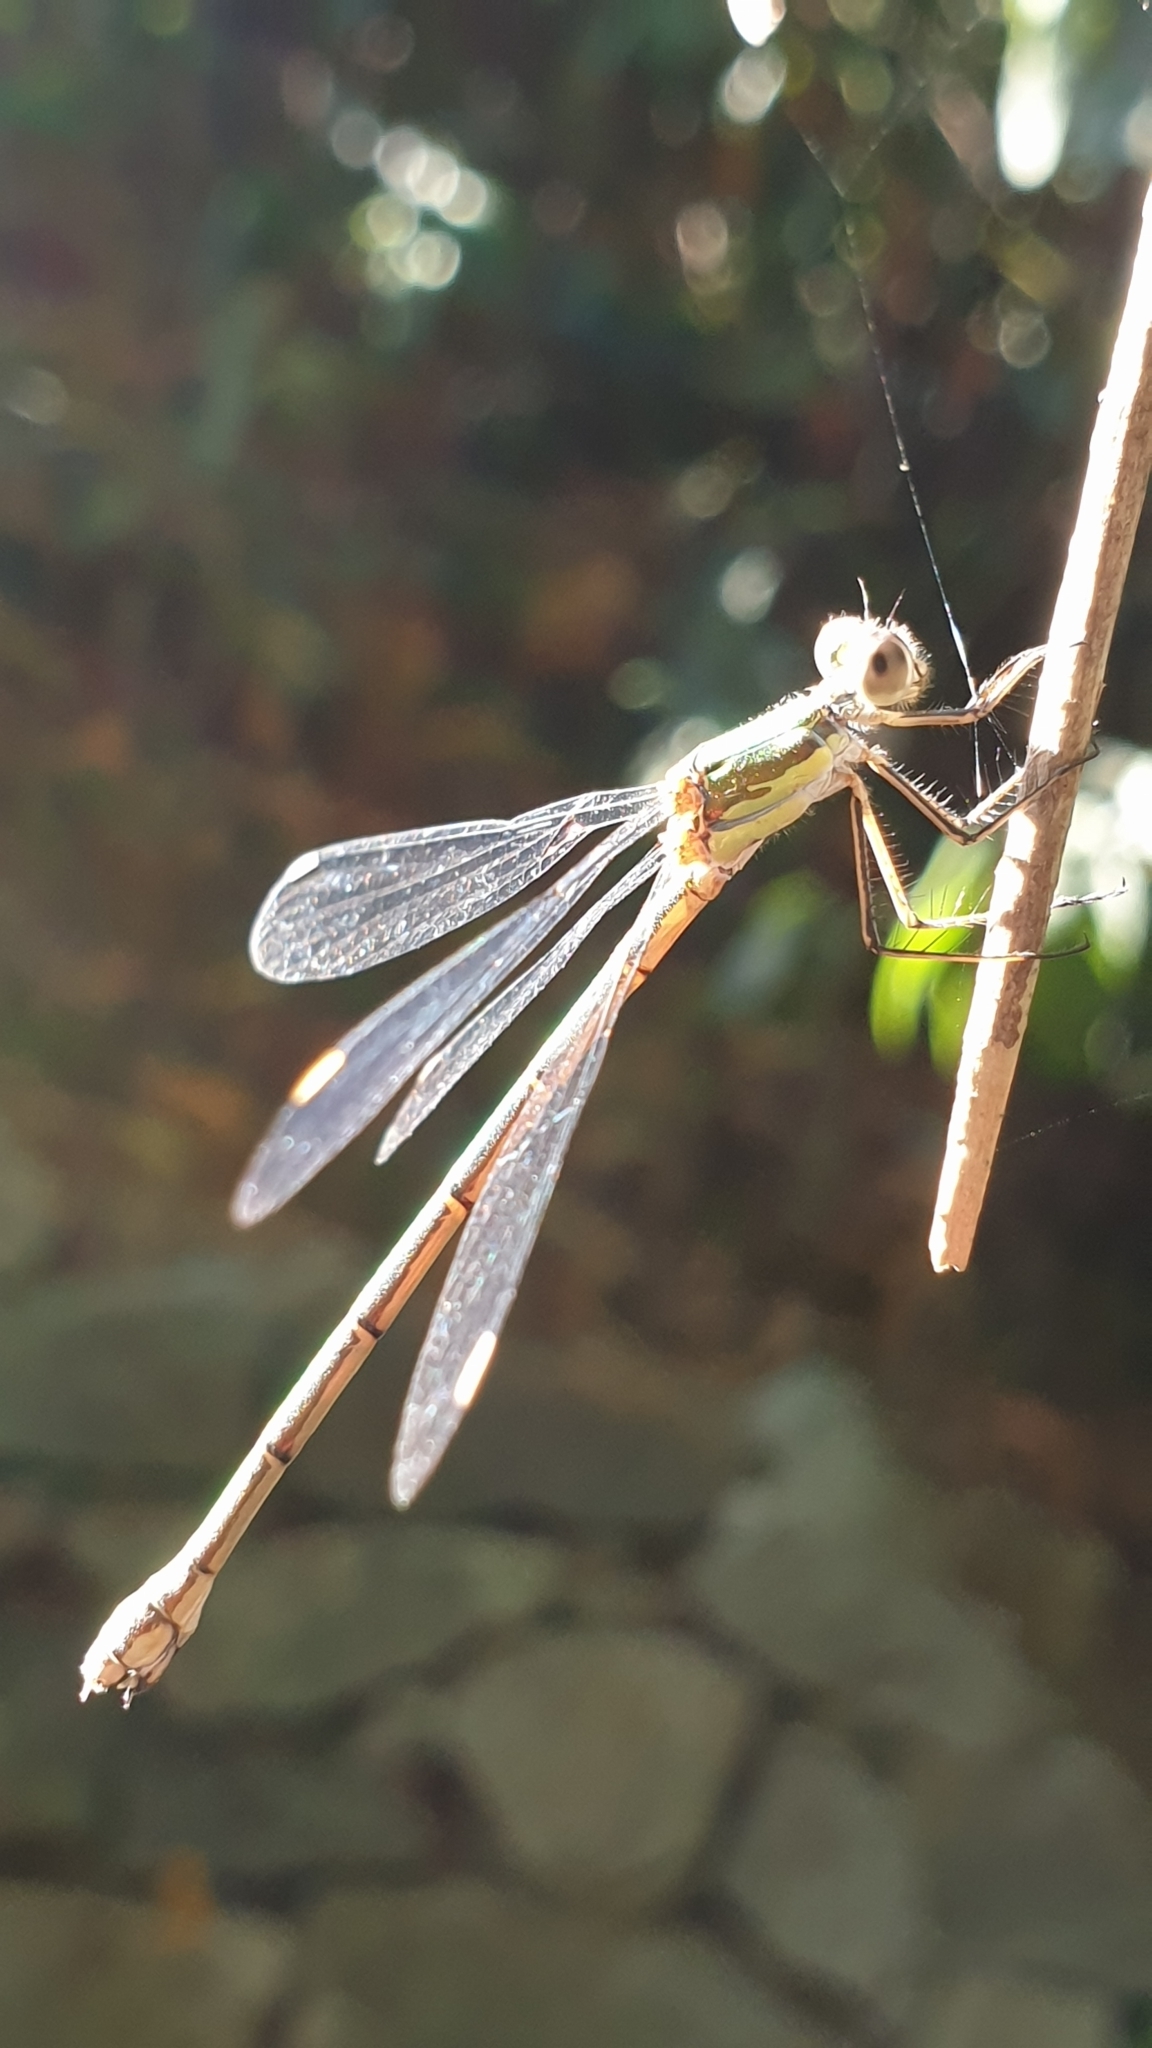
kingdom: Animalia
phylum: Arthropoda
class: Insecta
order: Odonata
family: Lestidae
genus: Chalcolestes
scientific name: Chalcolestes viridis
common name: Green emerald damselfly
